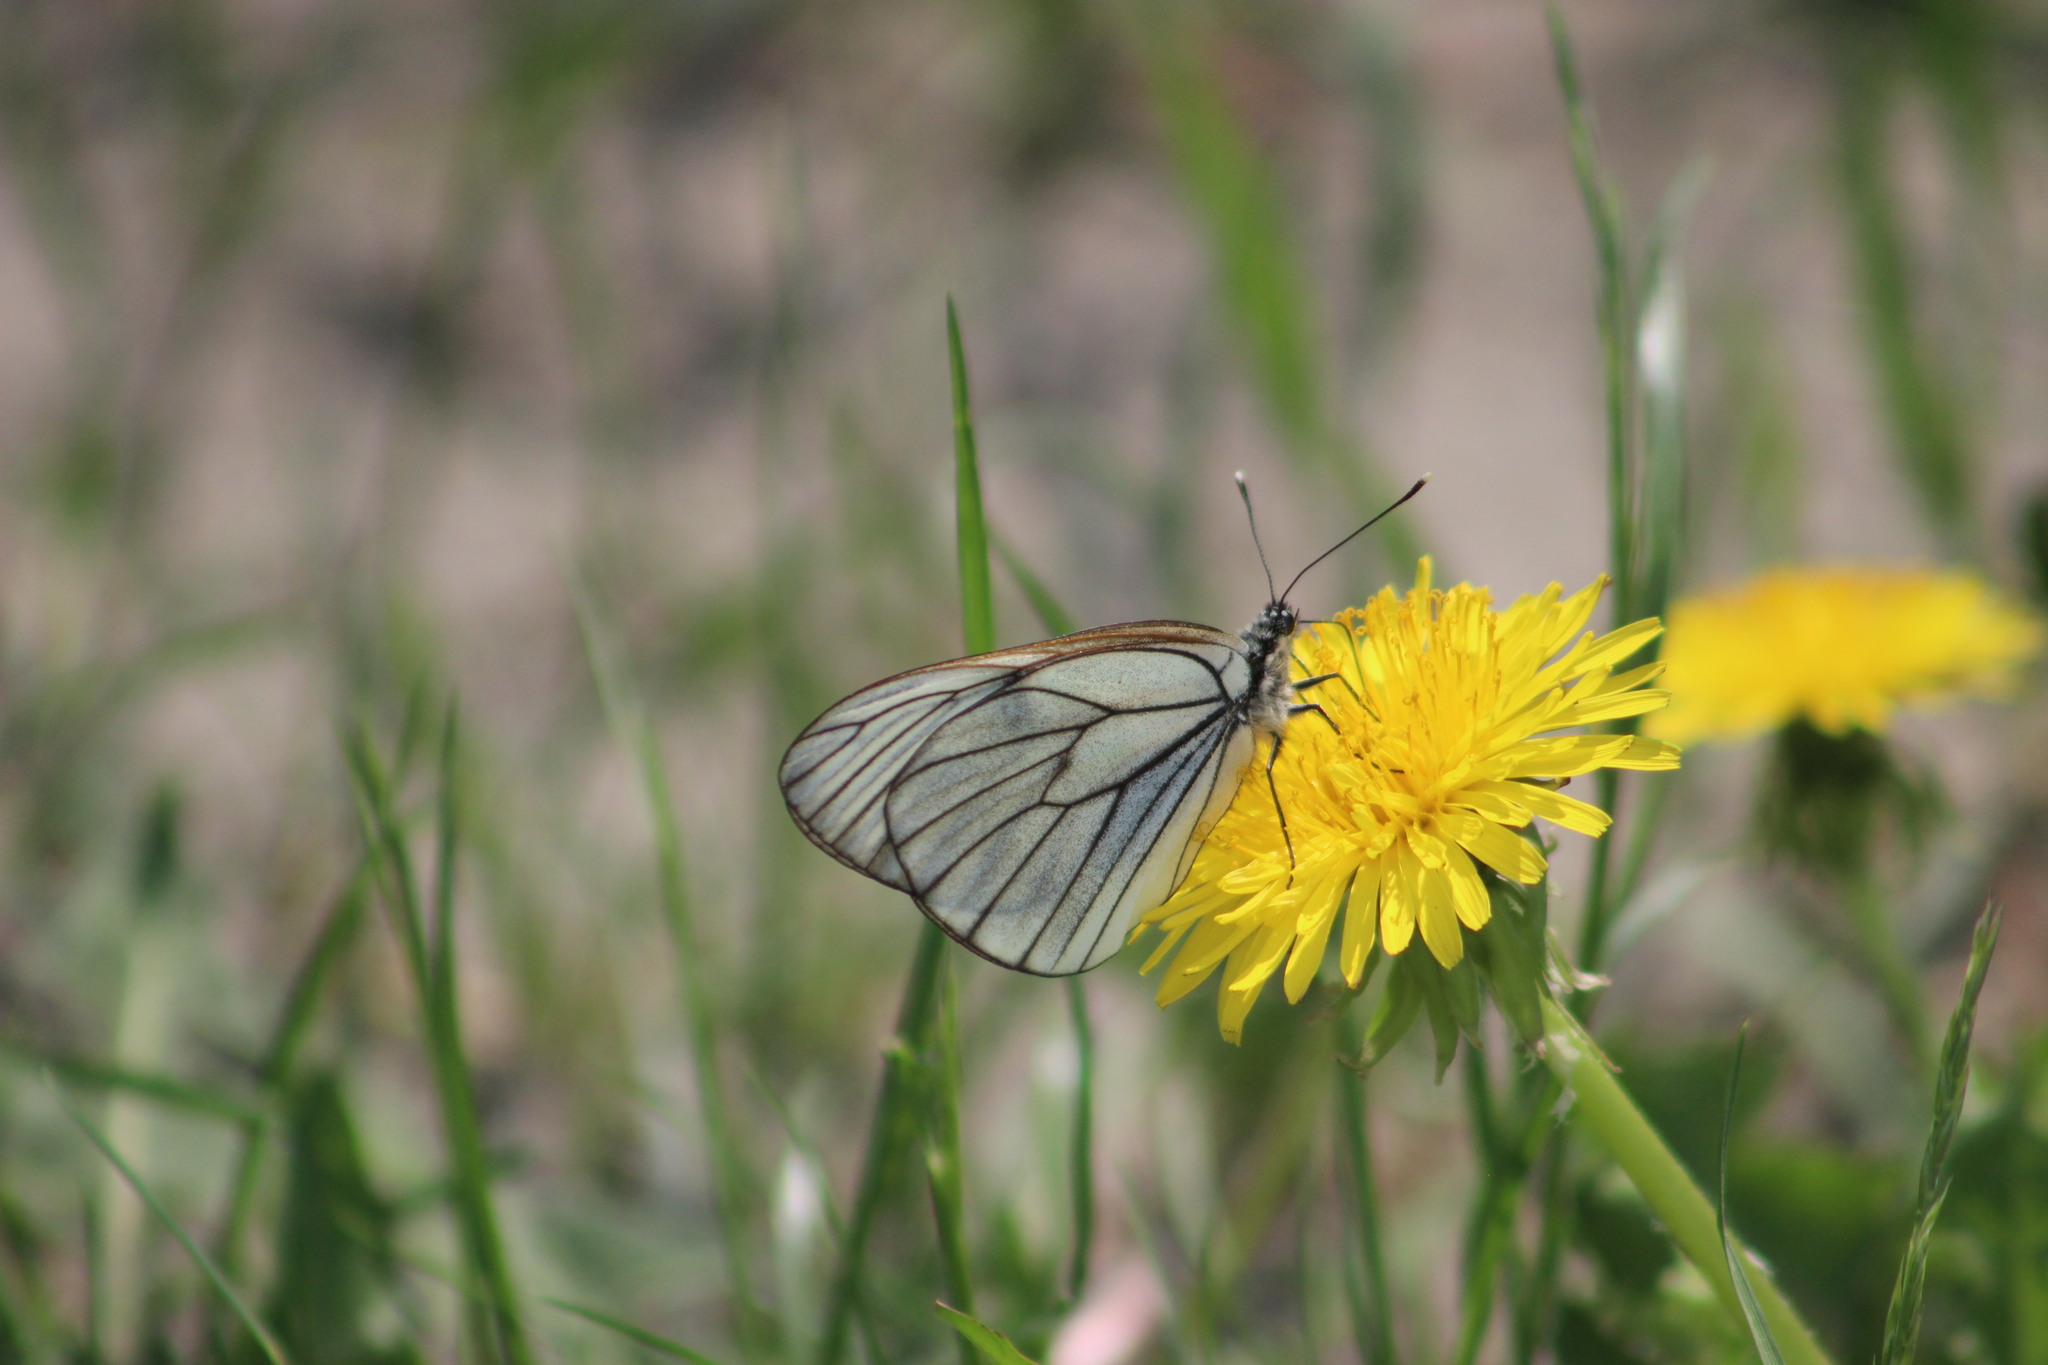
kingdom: Animalia
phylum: Arthropoda
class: Insecta
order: Lepidoptera
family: Pieridae
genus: Aporia
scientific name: Aporia crataegi
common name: Black-veined white
